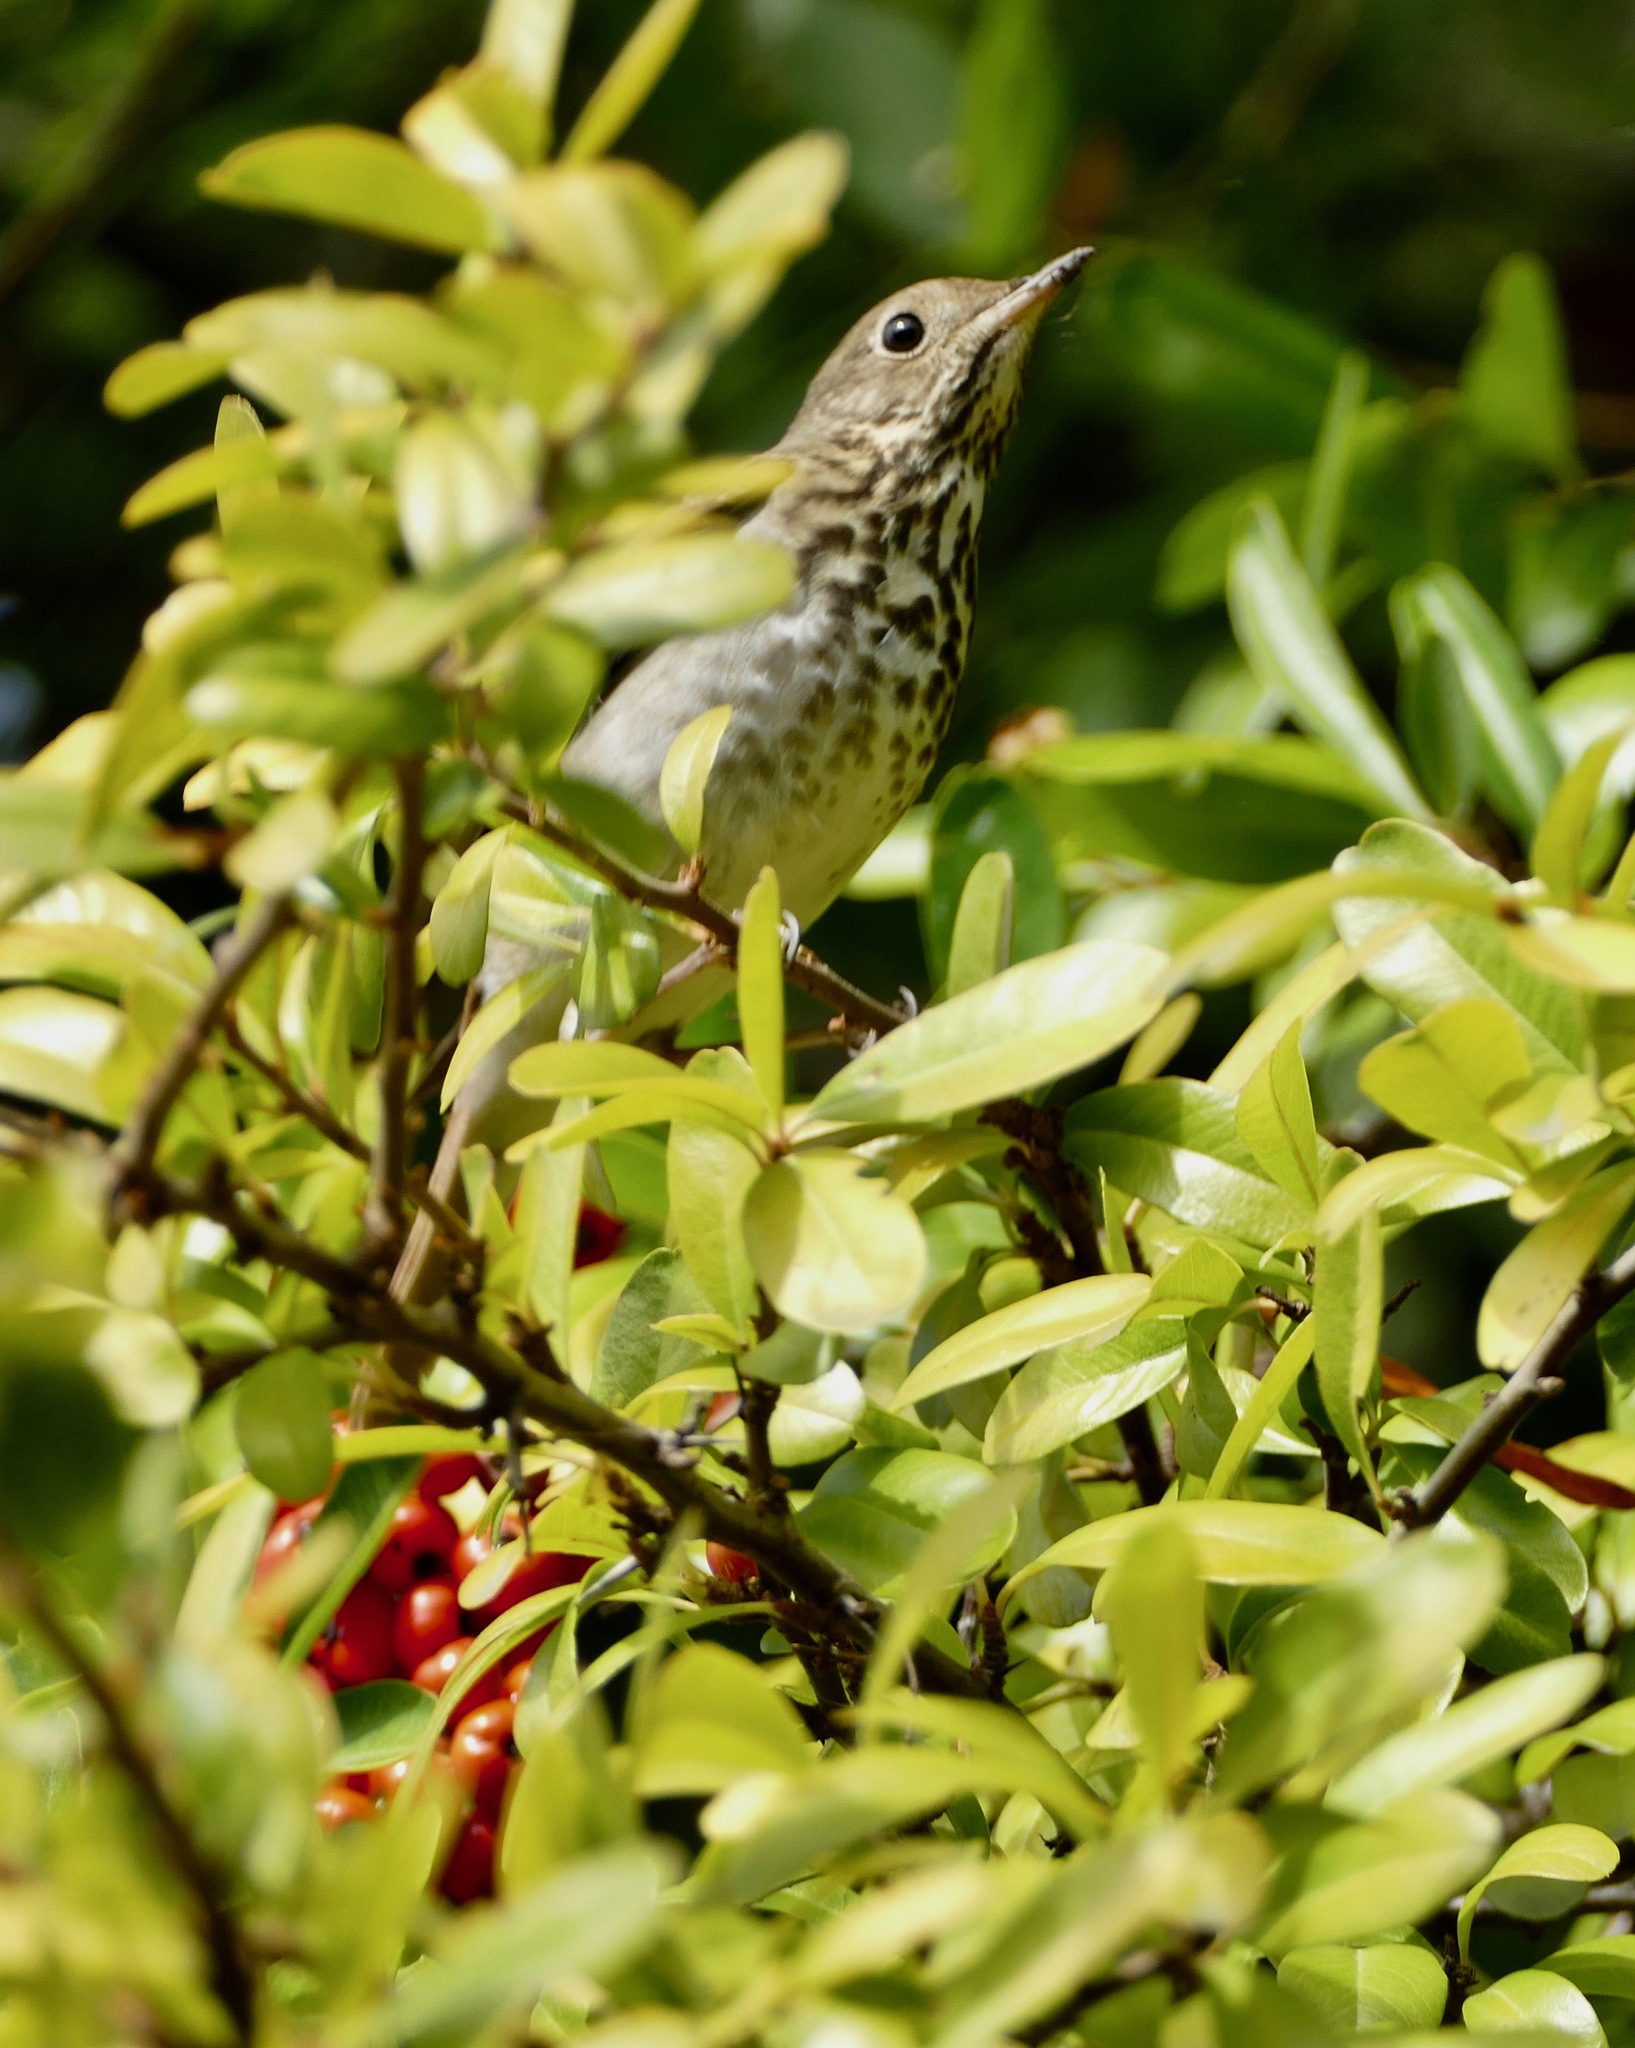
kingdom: Animalia
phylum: Chordata
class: Aves
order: Passeriformes
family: Turdidae
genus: Catharus
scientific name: Catharus guttatus
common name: Hermit thrush
